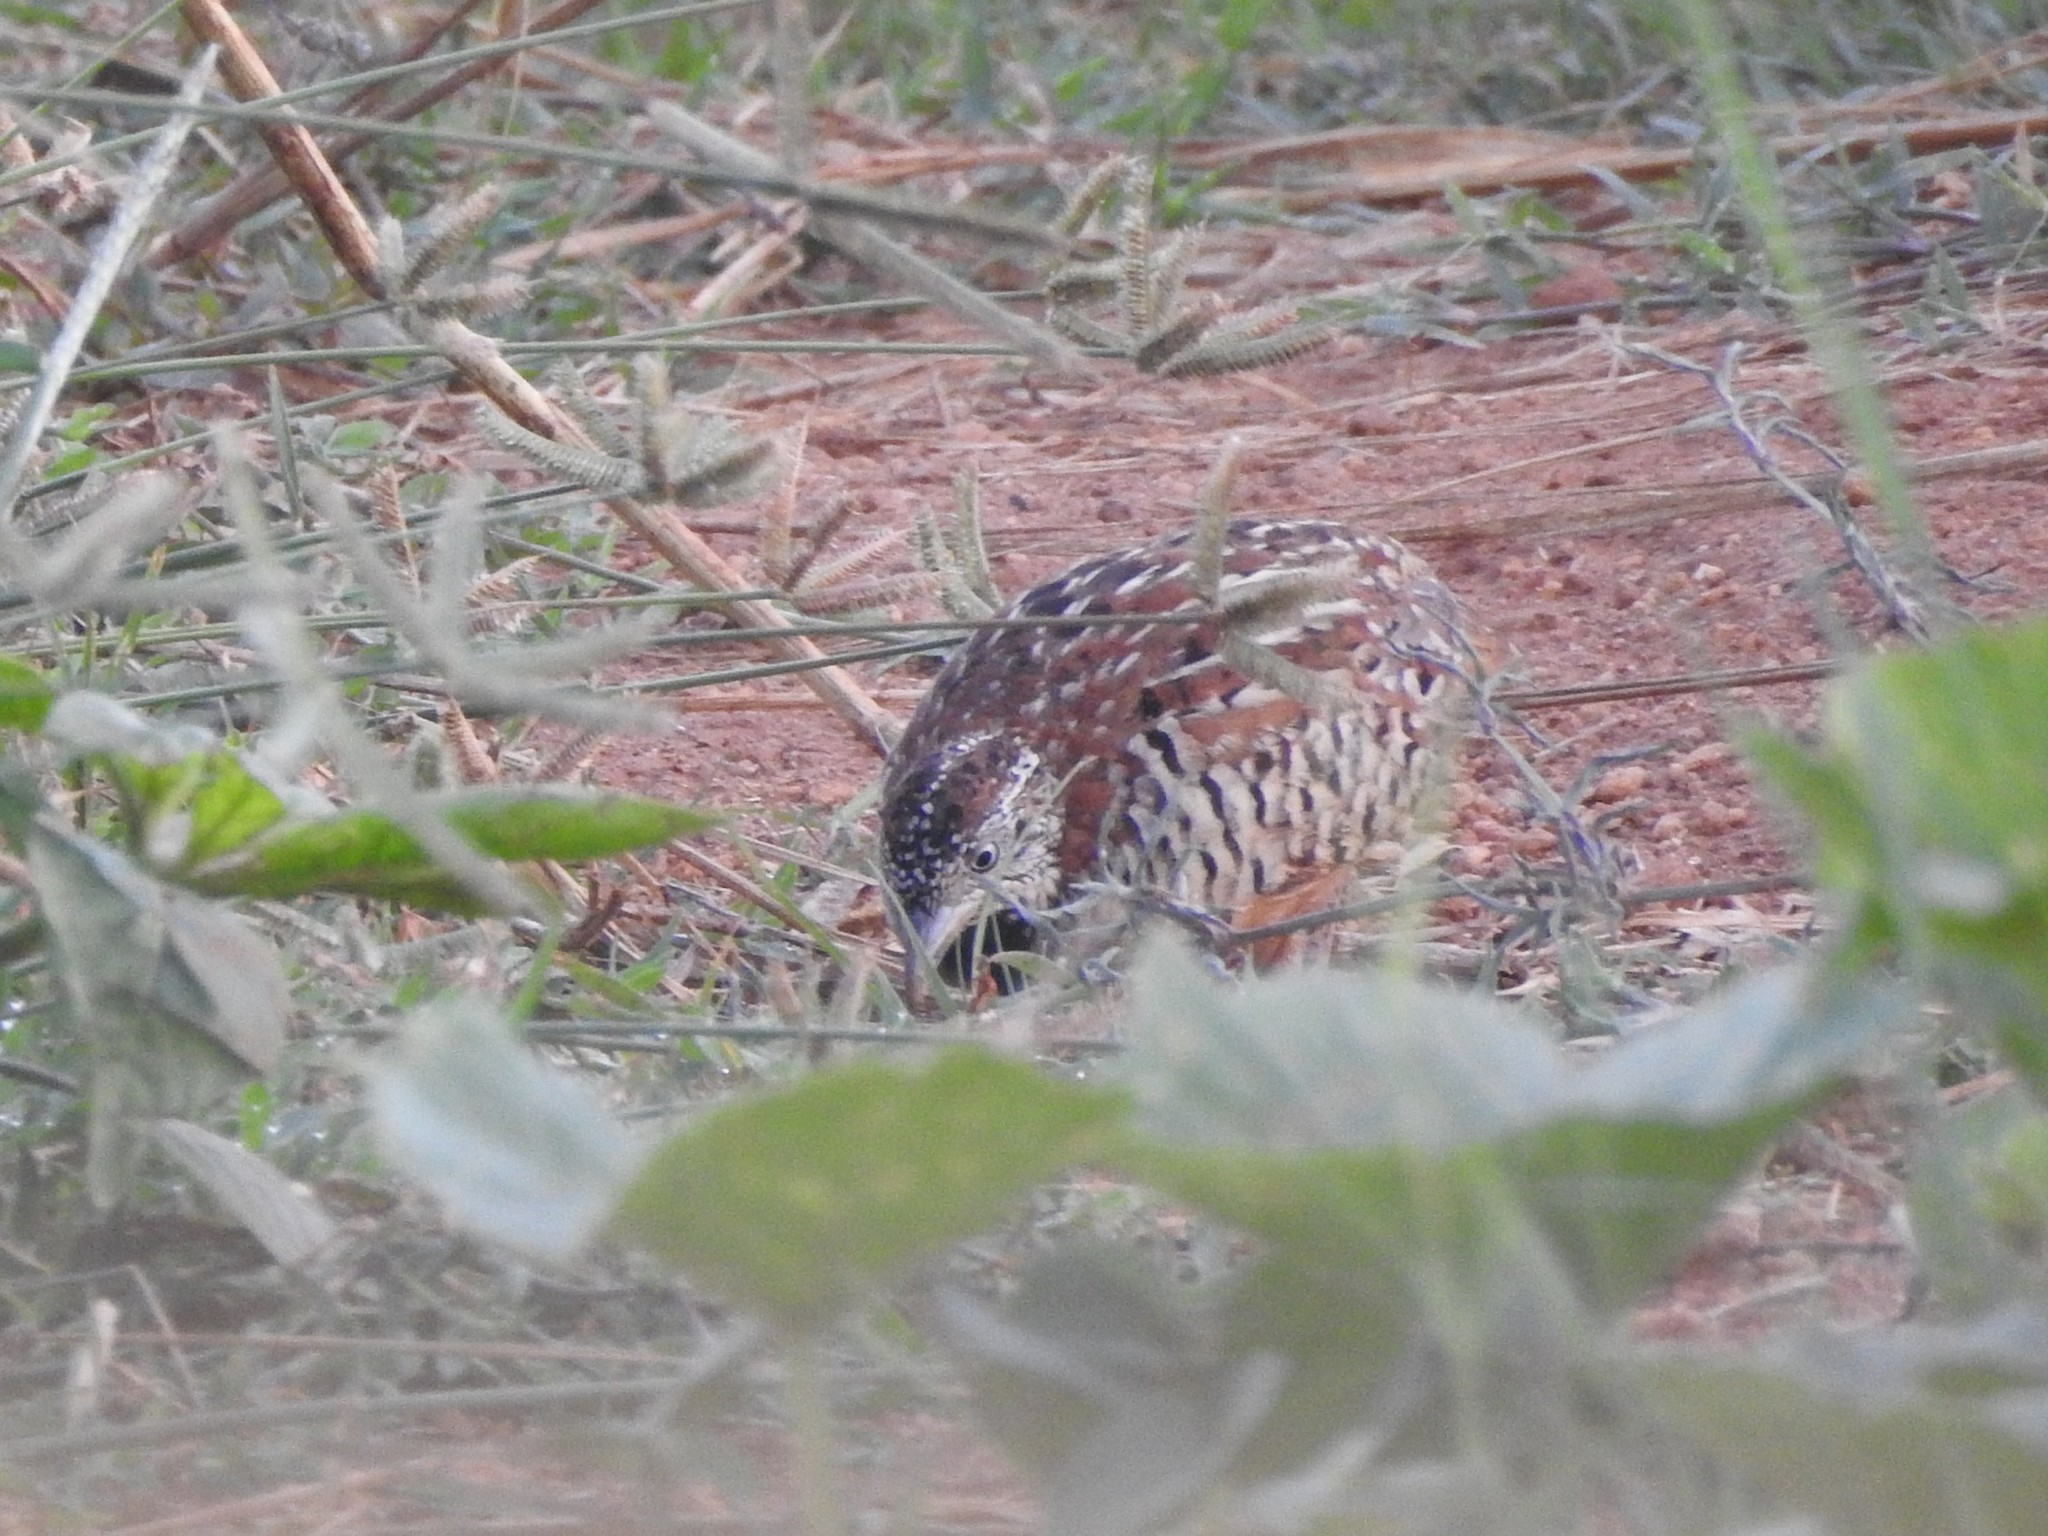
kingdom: Animalia
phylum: Chordata
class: Aves
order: Charadriiformes
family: Turnicidae
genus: Turnix
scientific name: Turnix suscitator
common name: Barred buttonquail
